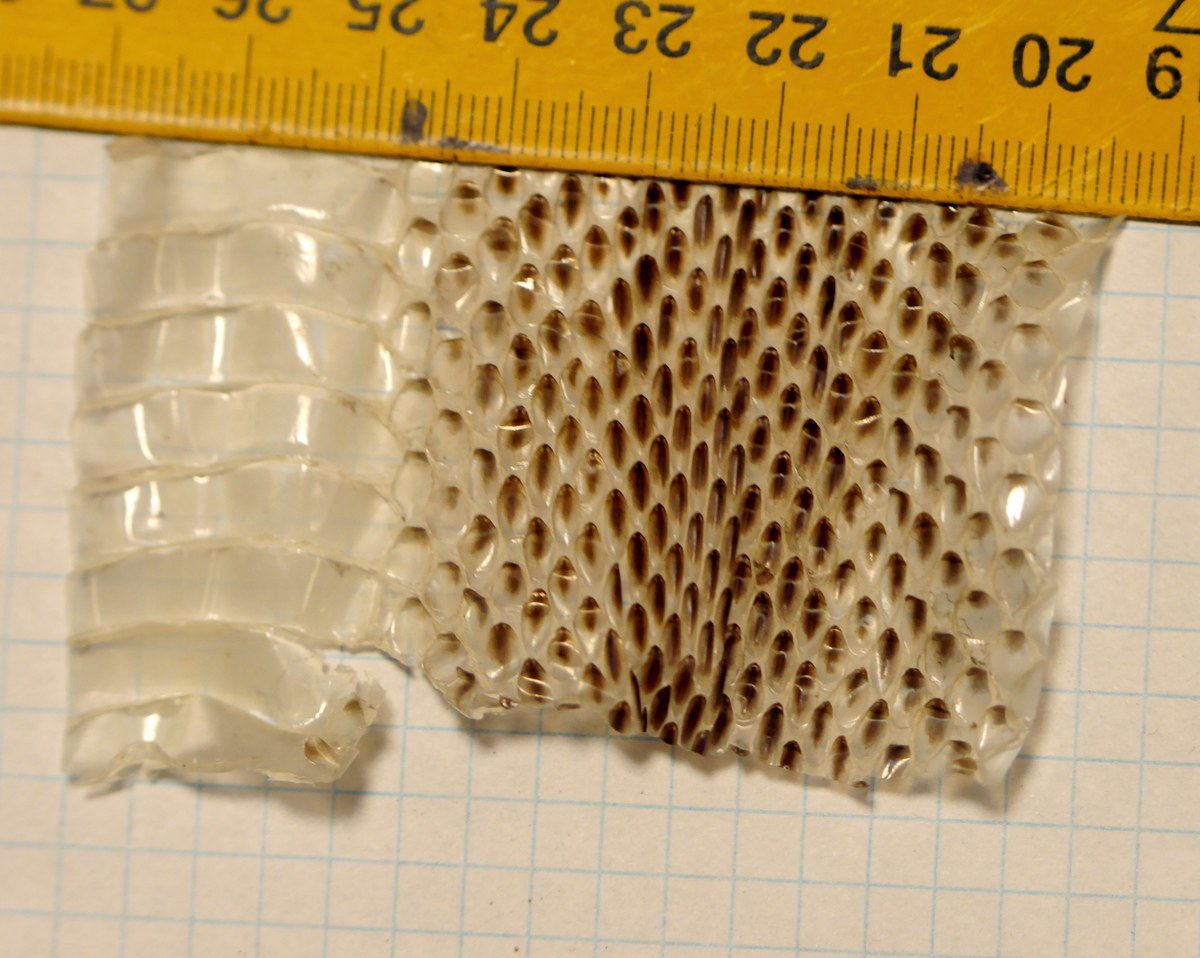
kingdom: Animalia
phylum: Chordata
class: Squamata
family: Colubridae
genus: Elaphe
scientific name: Elaphe sauromates
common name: Eastern four-lined ratsnake
